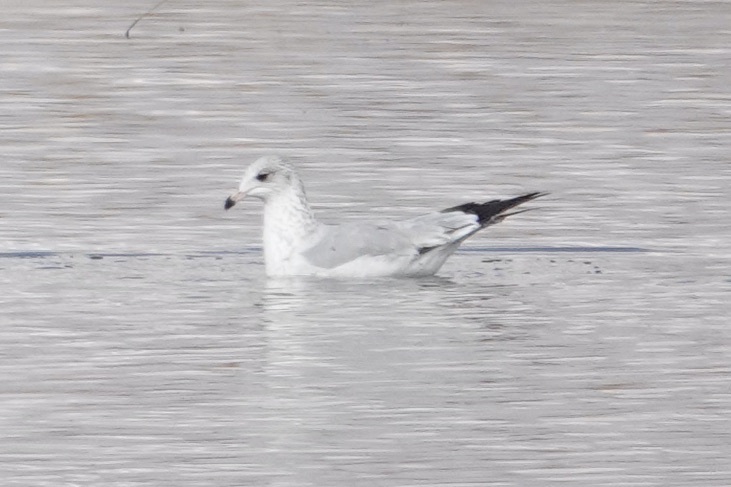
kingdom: Animalia
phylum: Chordata
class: Aves
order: Charadriiformes
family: Laridae
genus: Larus
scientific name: Larus delawarensis
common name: Ring-billed gull
